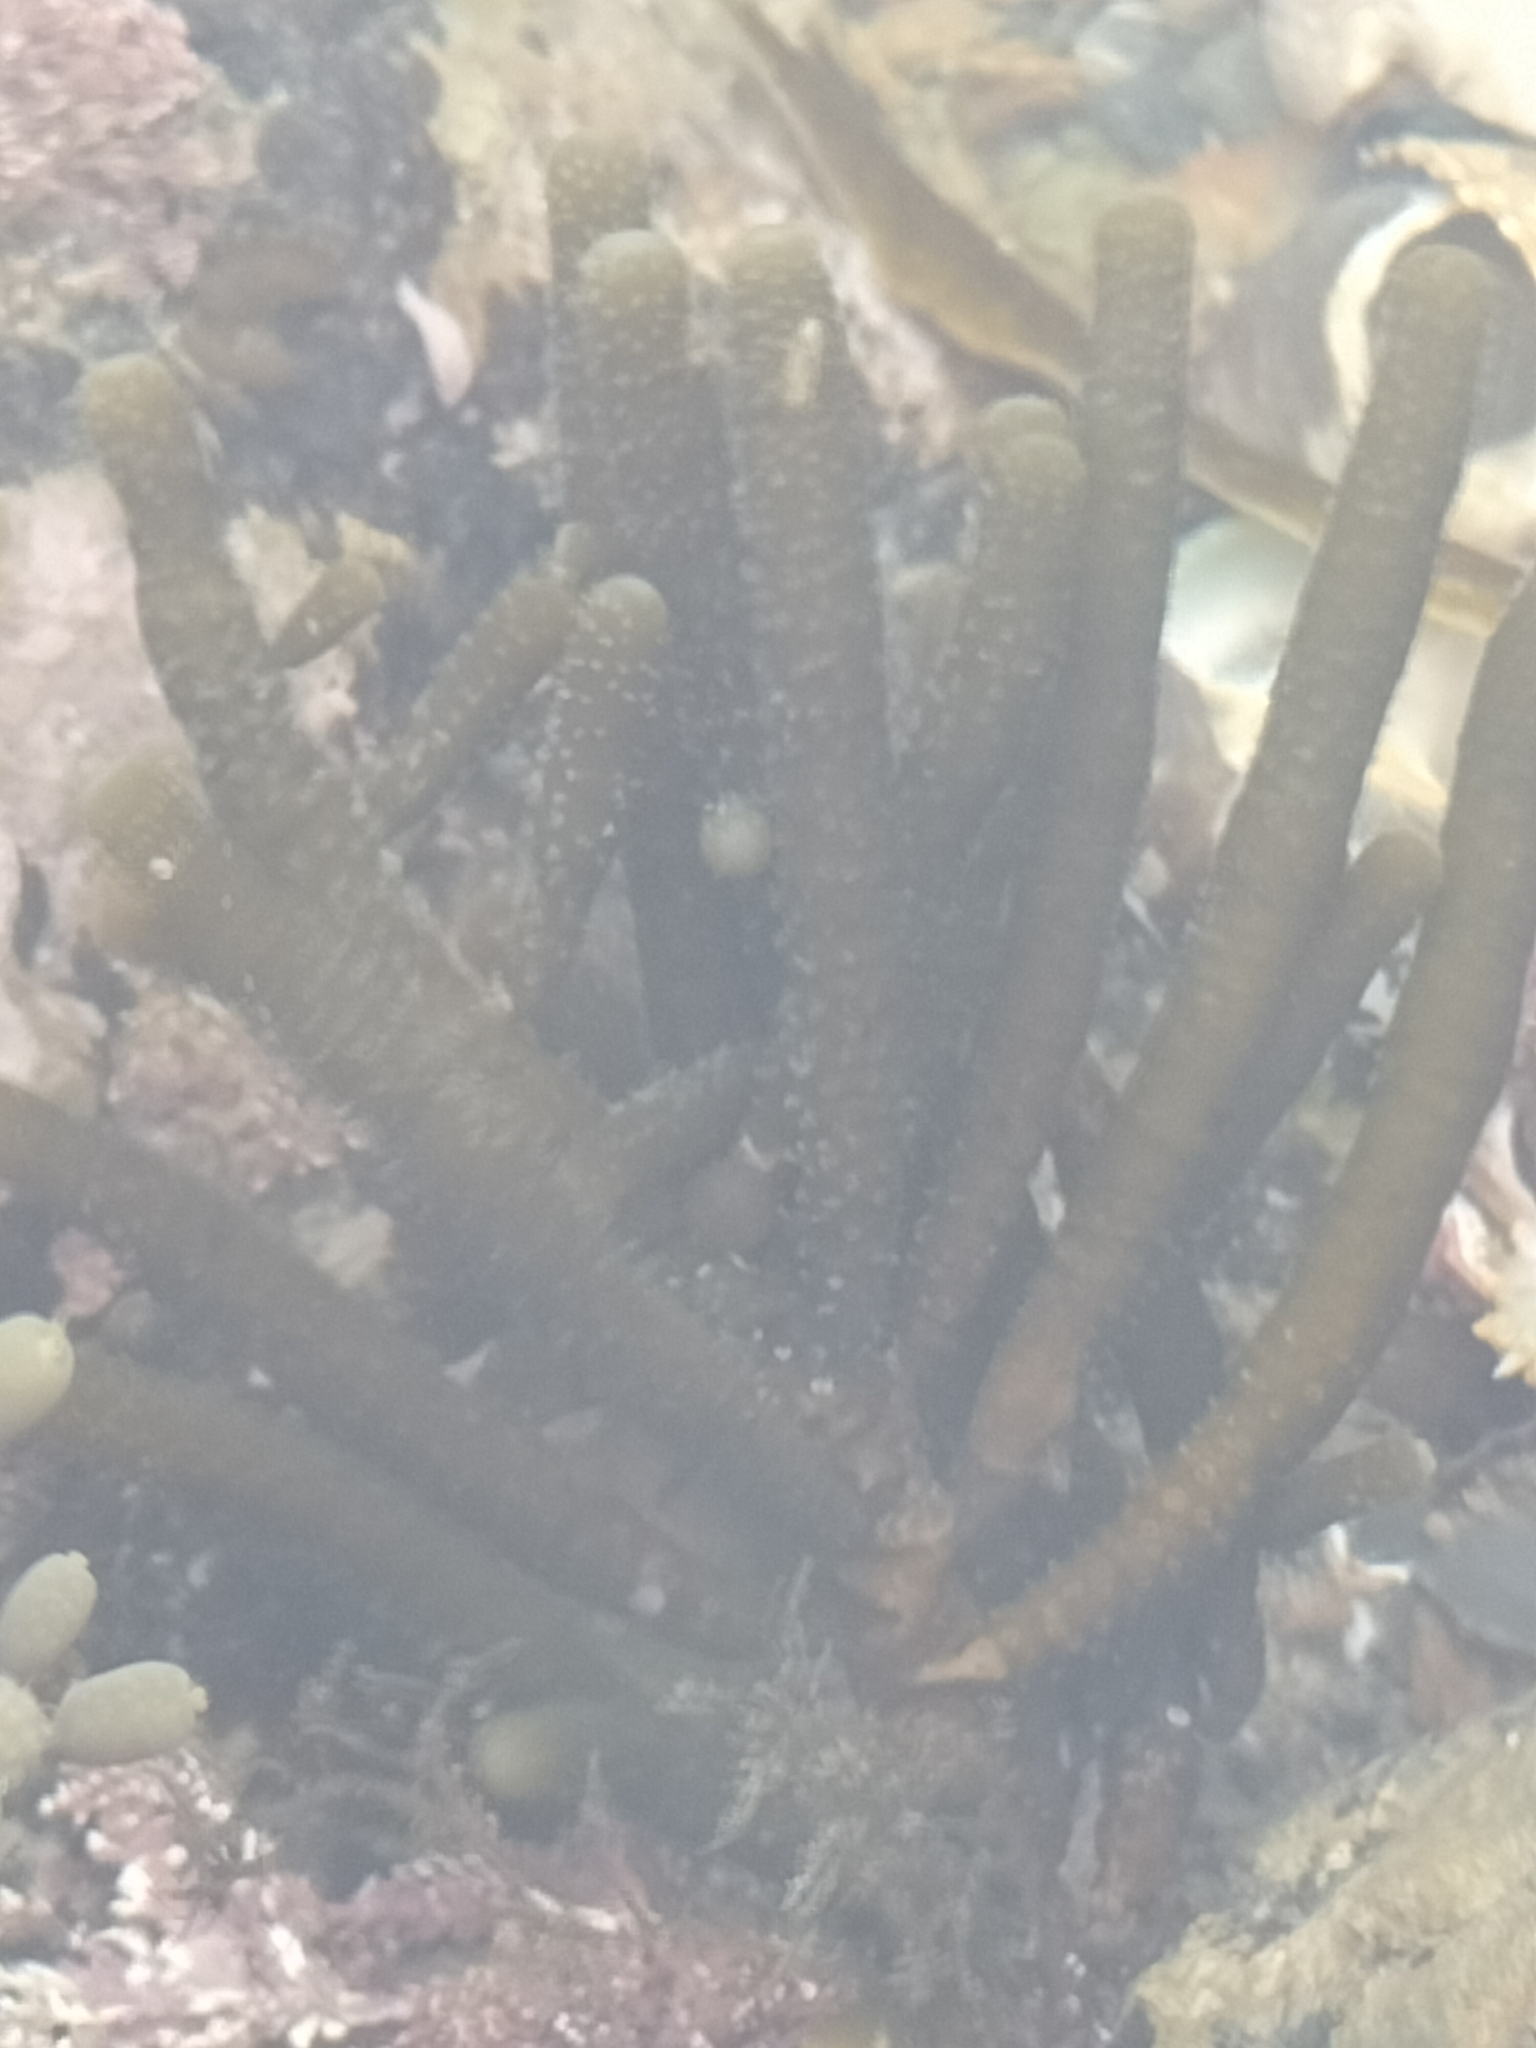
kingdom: Chromista
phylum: Ochrophyta
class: Phaeophyceae
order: Scytothamnales
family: Splachnidiaceae
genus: Splachnidium
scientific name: Splachnidium rugosum
